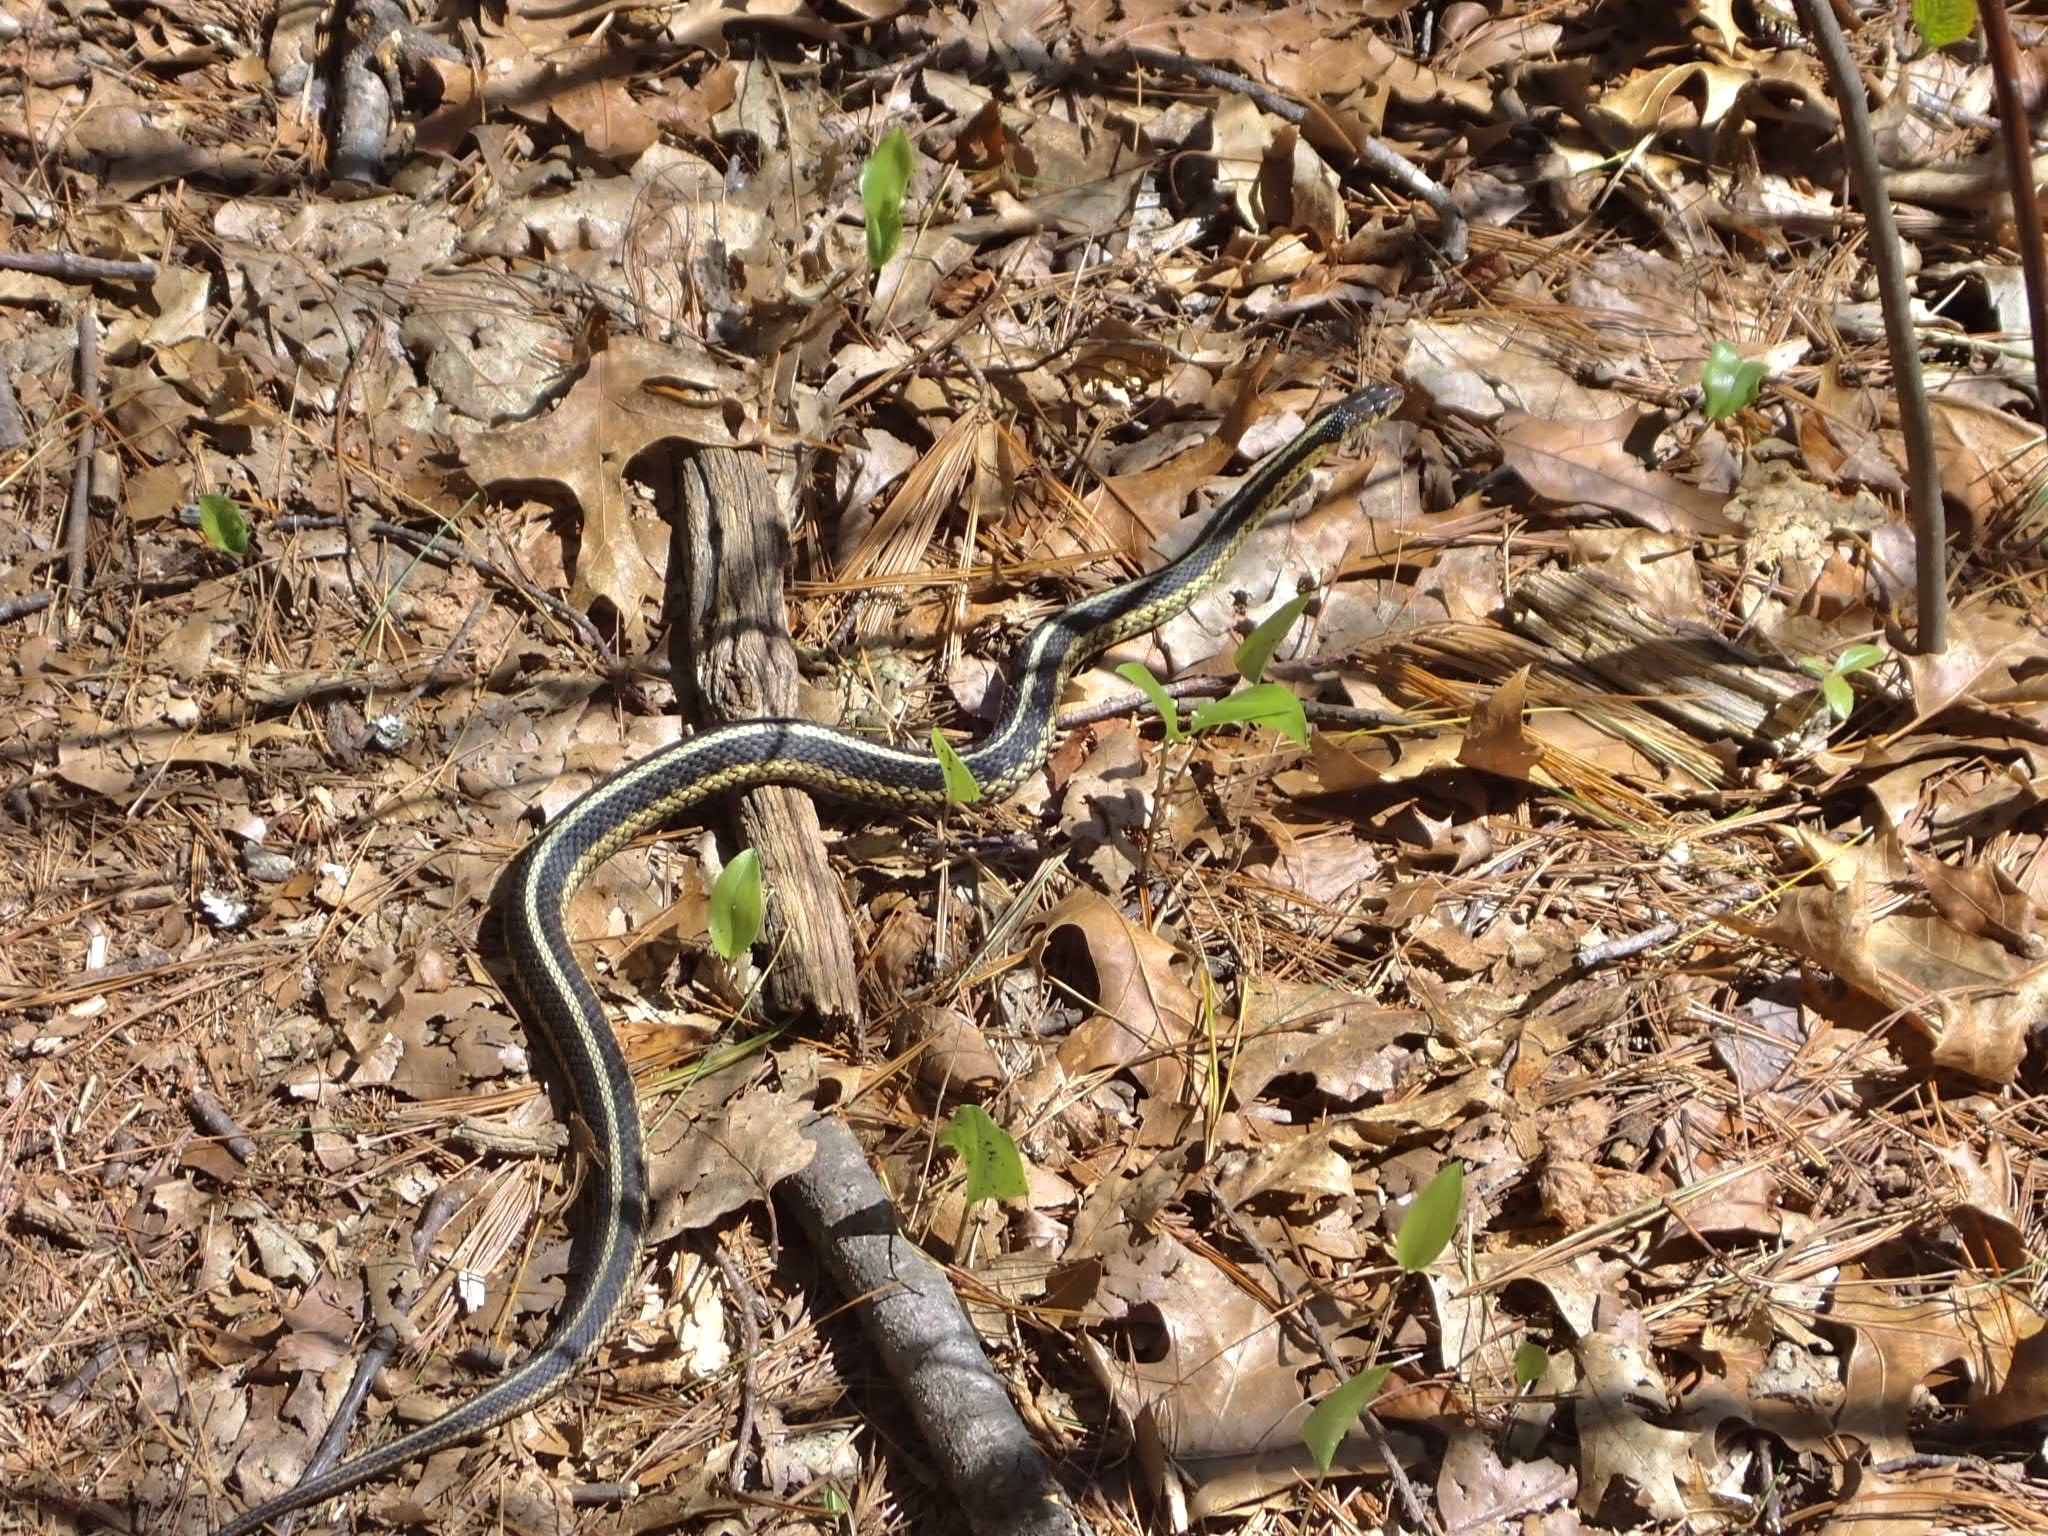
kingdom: Animalia
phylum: Chordata
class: Squamata
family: Colubridae
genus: Thamnophis
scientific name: Thamnophis sirtalis
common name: Common garter snake
